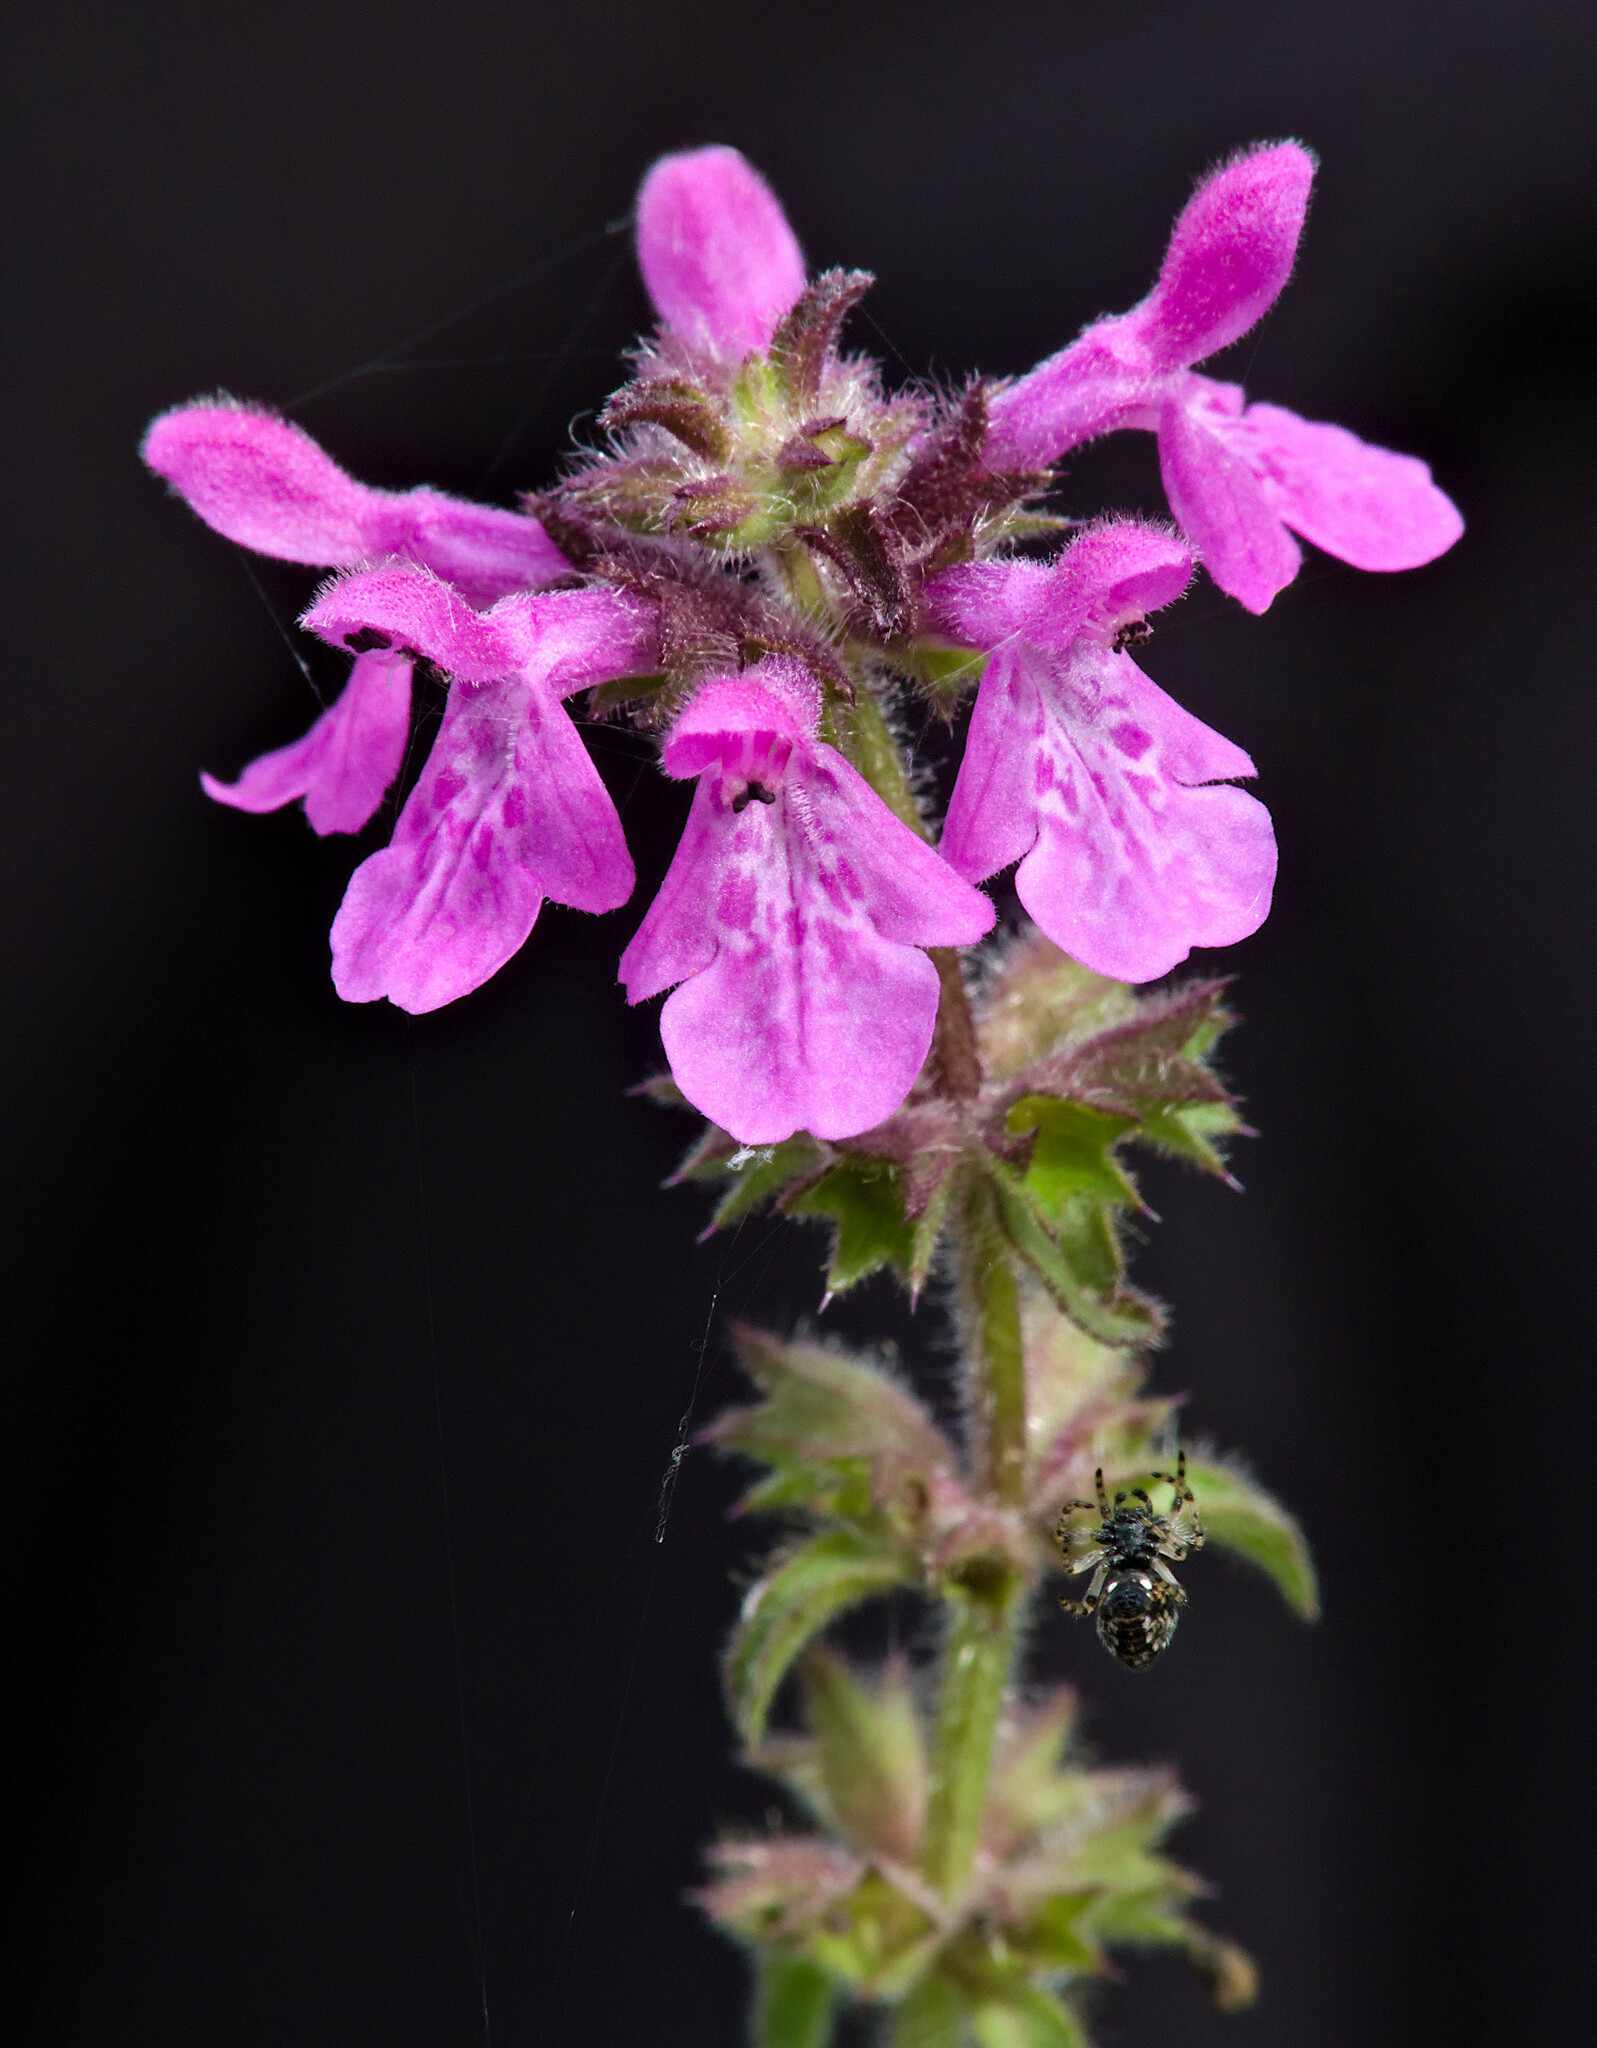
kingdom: Plantae
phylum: Tracheophyta
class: Magnoliopsida
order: Lamiales
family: Lamiaceae
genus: Stachys
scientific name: Stachys bogotensis
